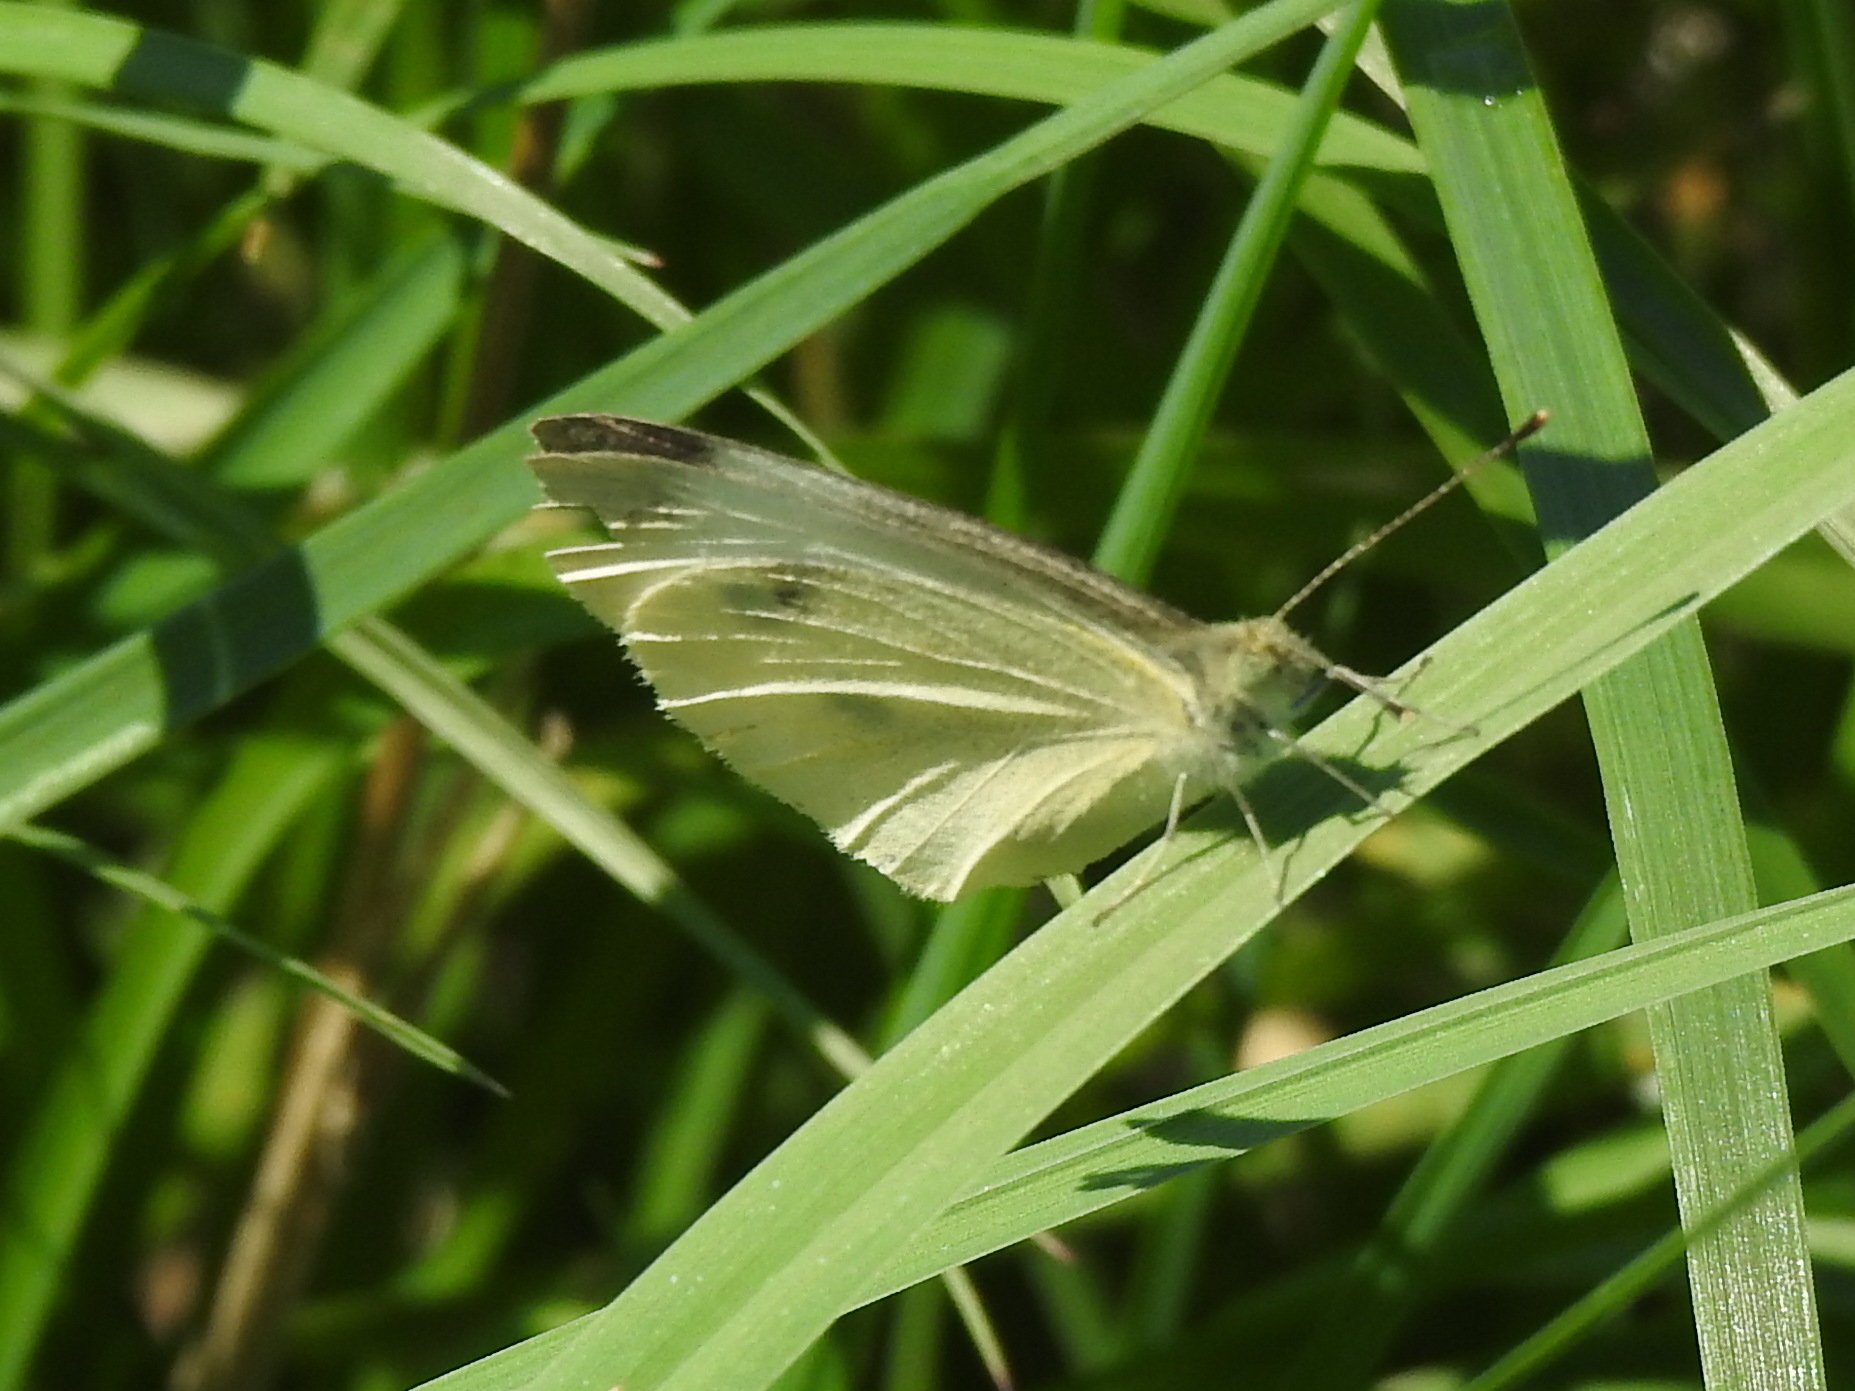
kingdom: Animalia
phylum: Arthropoda
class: Insecta
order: Lepidoptera
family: Pieridae
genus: Pieris
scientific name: Pieris rapae
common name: Small white
